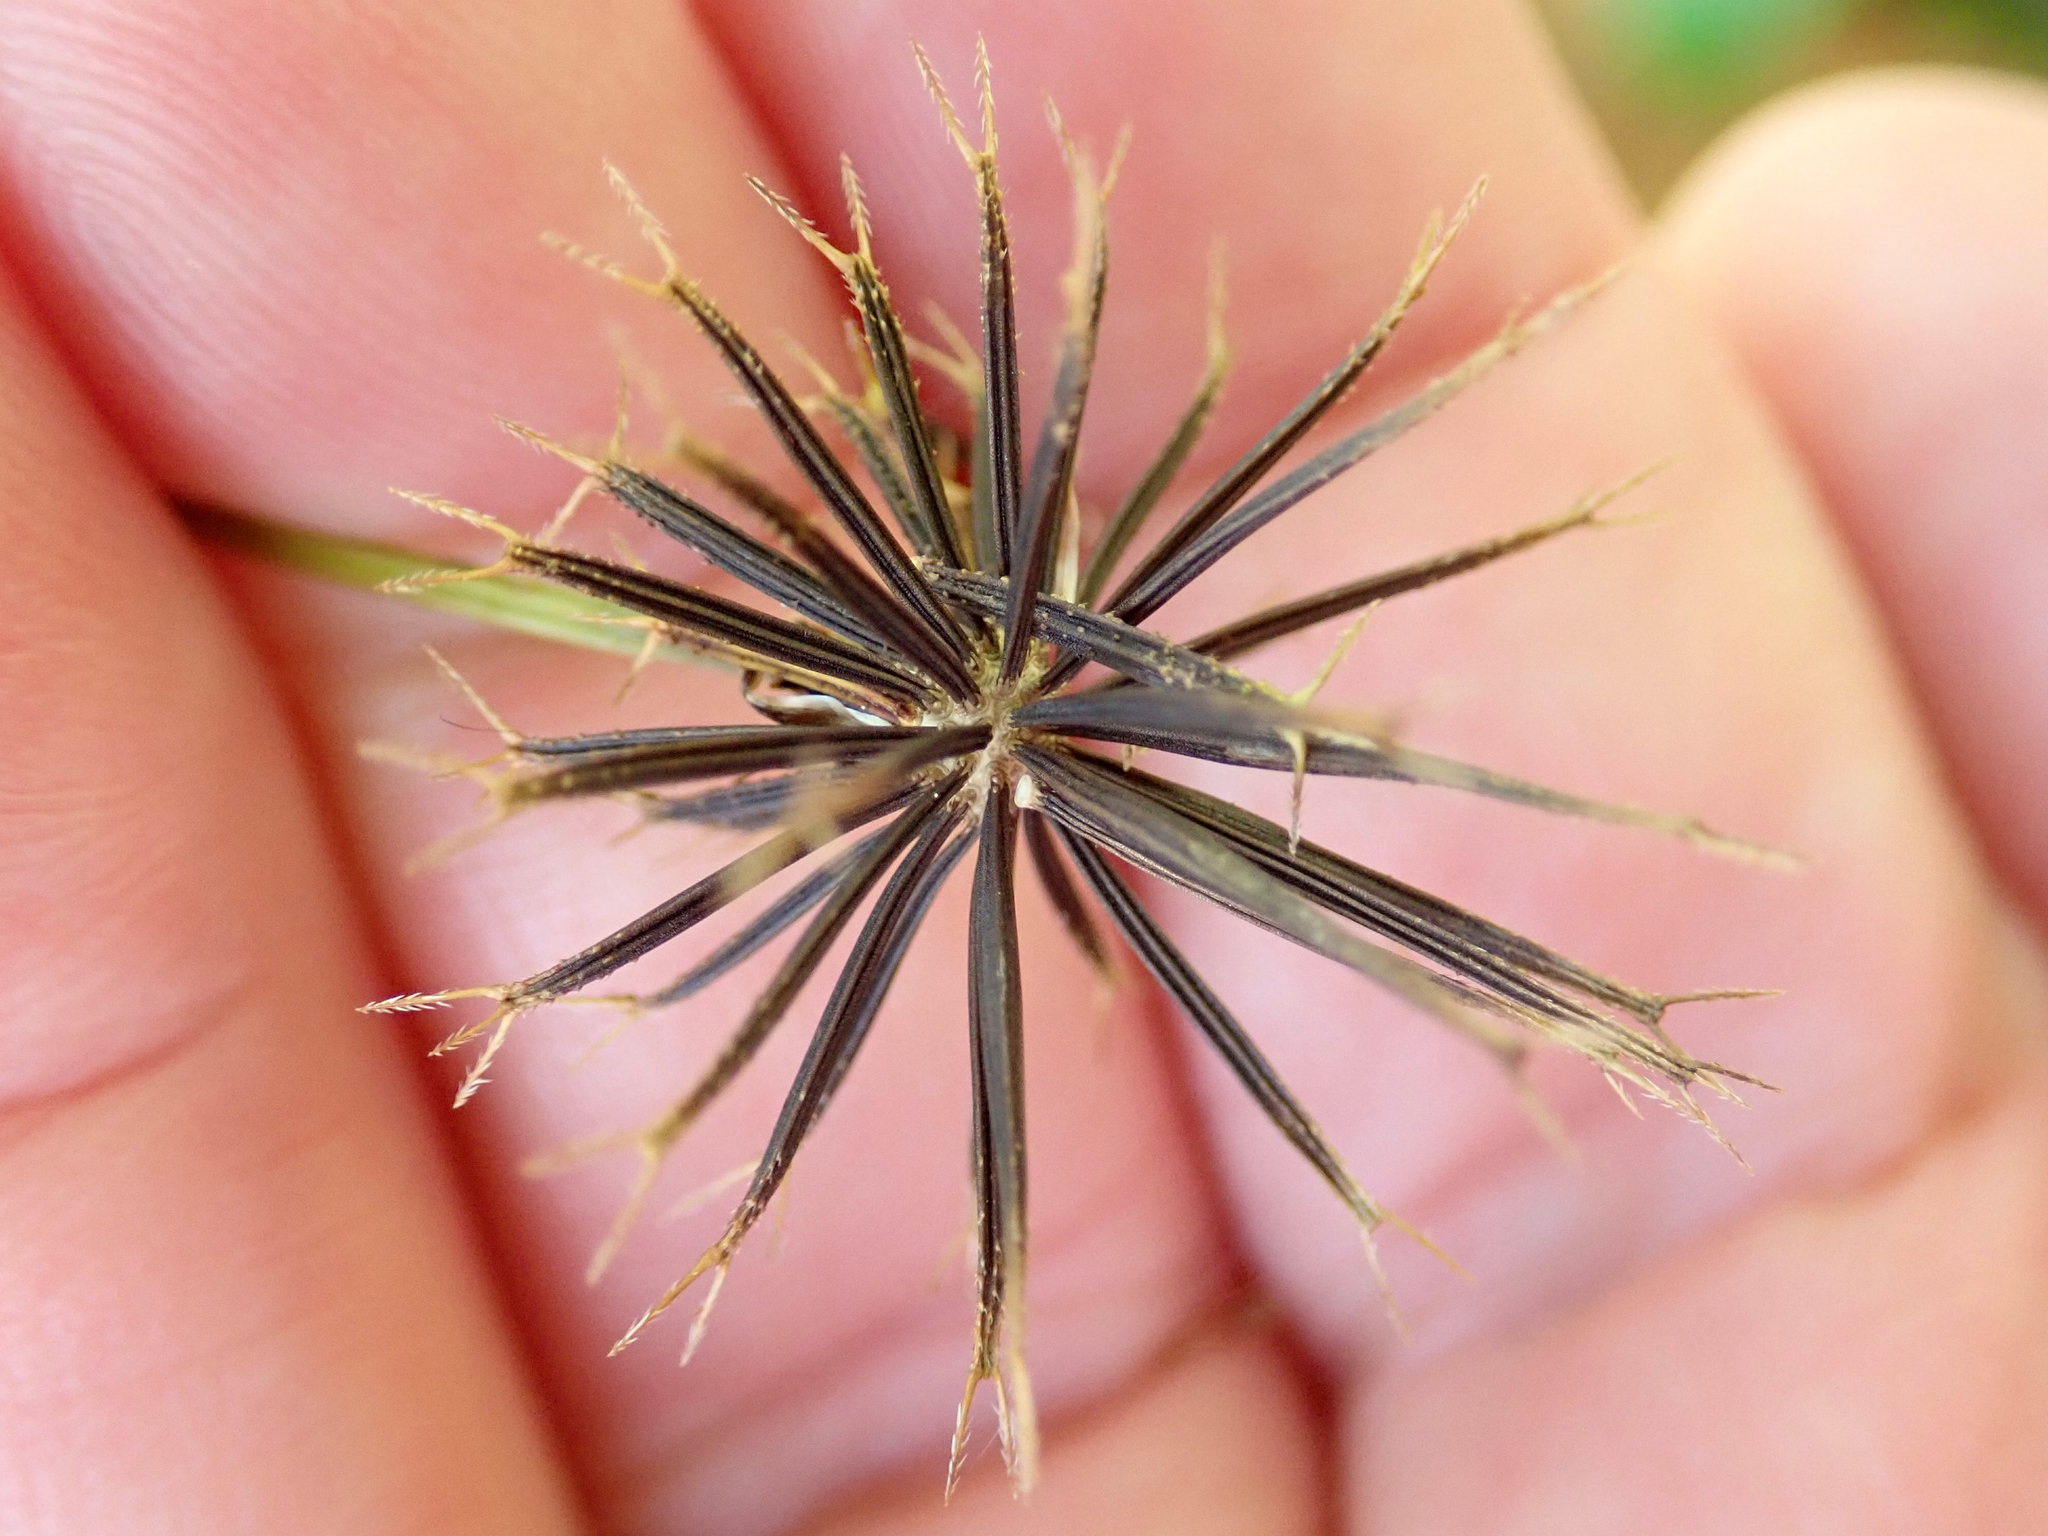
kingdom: Plantae
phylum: Tracheophyta
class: Magnoliopsida
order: Asterales
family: Asteraceae
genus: Bidens
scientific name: Bidens pilosa
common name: Black-jack
